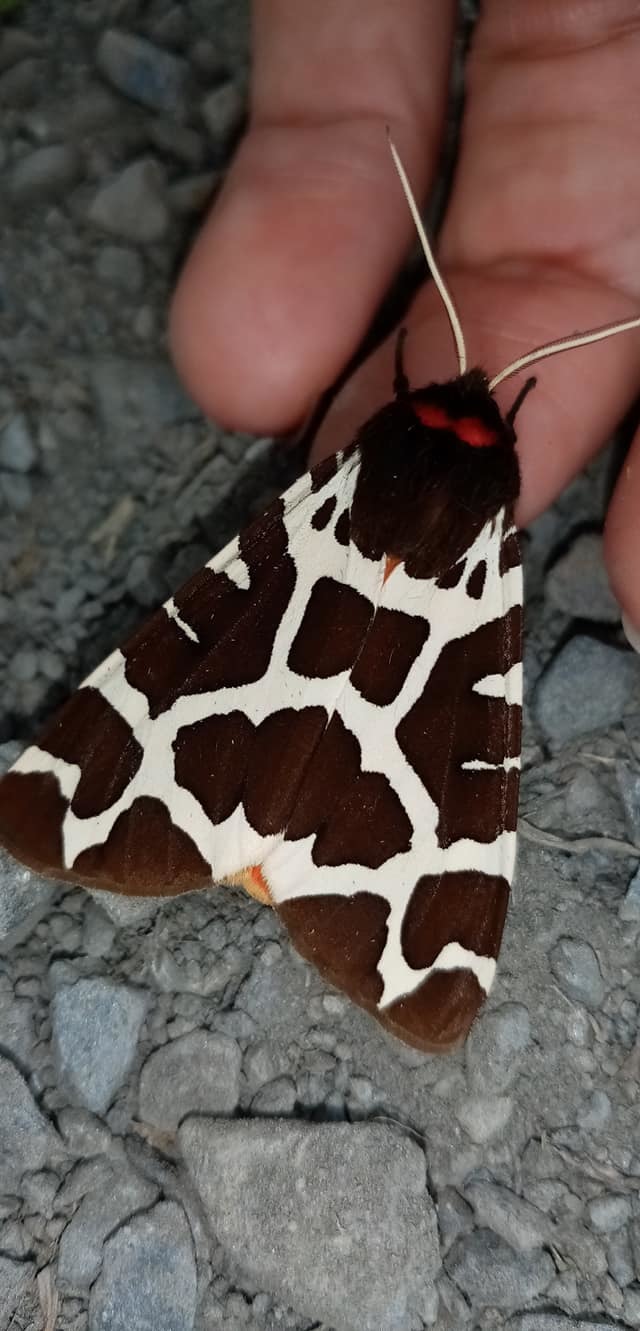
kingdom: Animalia
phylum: Arthropoda
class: Insecta
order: Lepidoptera
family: Erebidae
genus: Arctia
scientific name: Arctia caja
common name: Garden tiger
